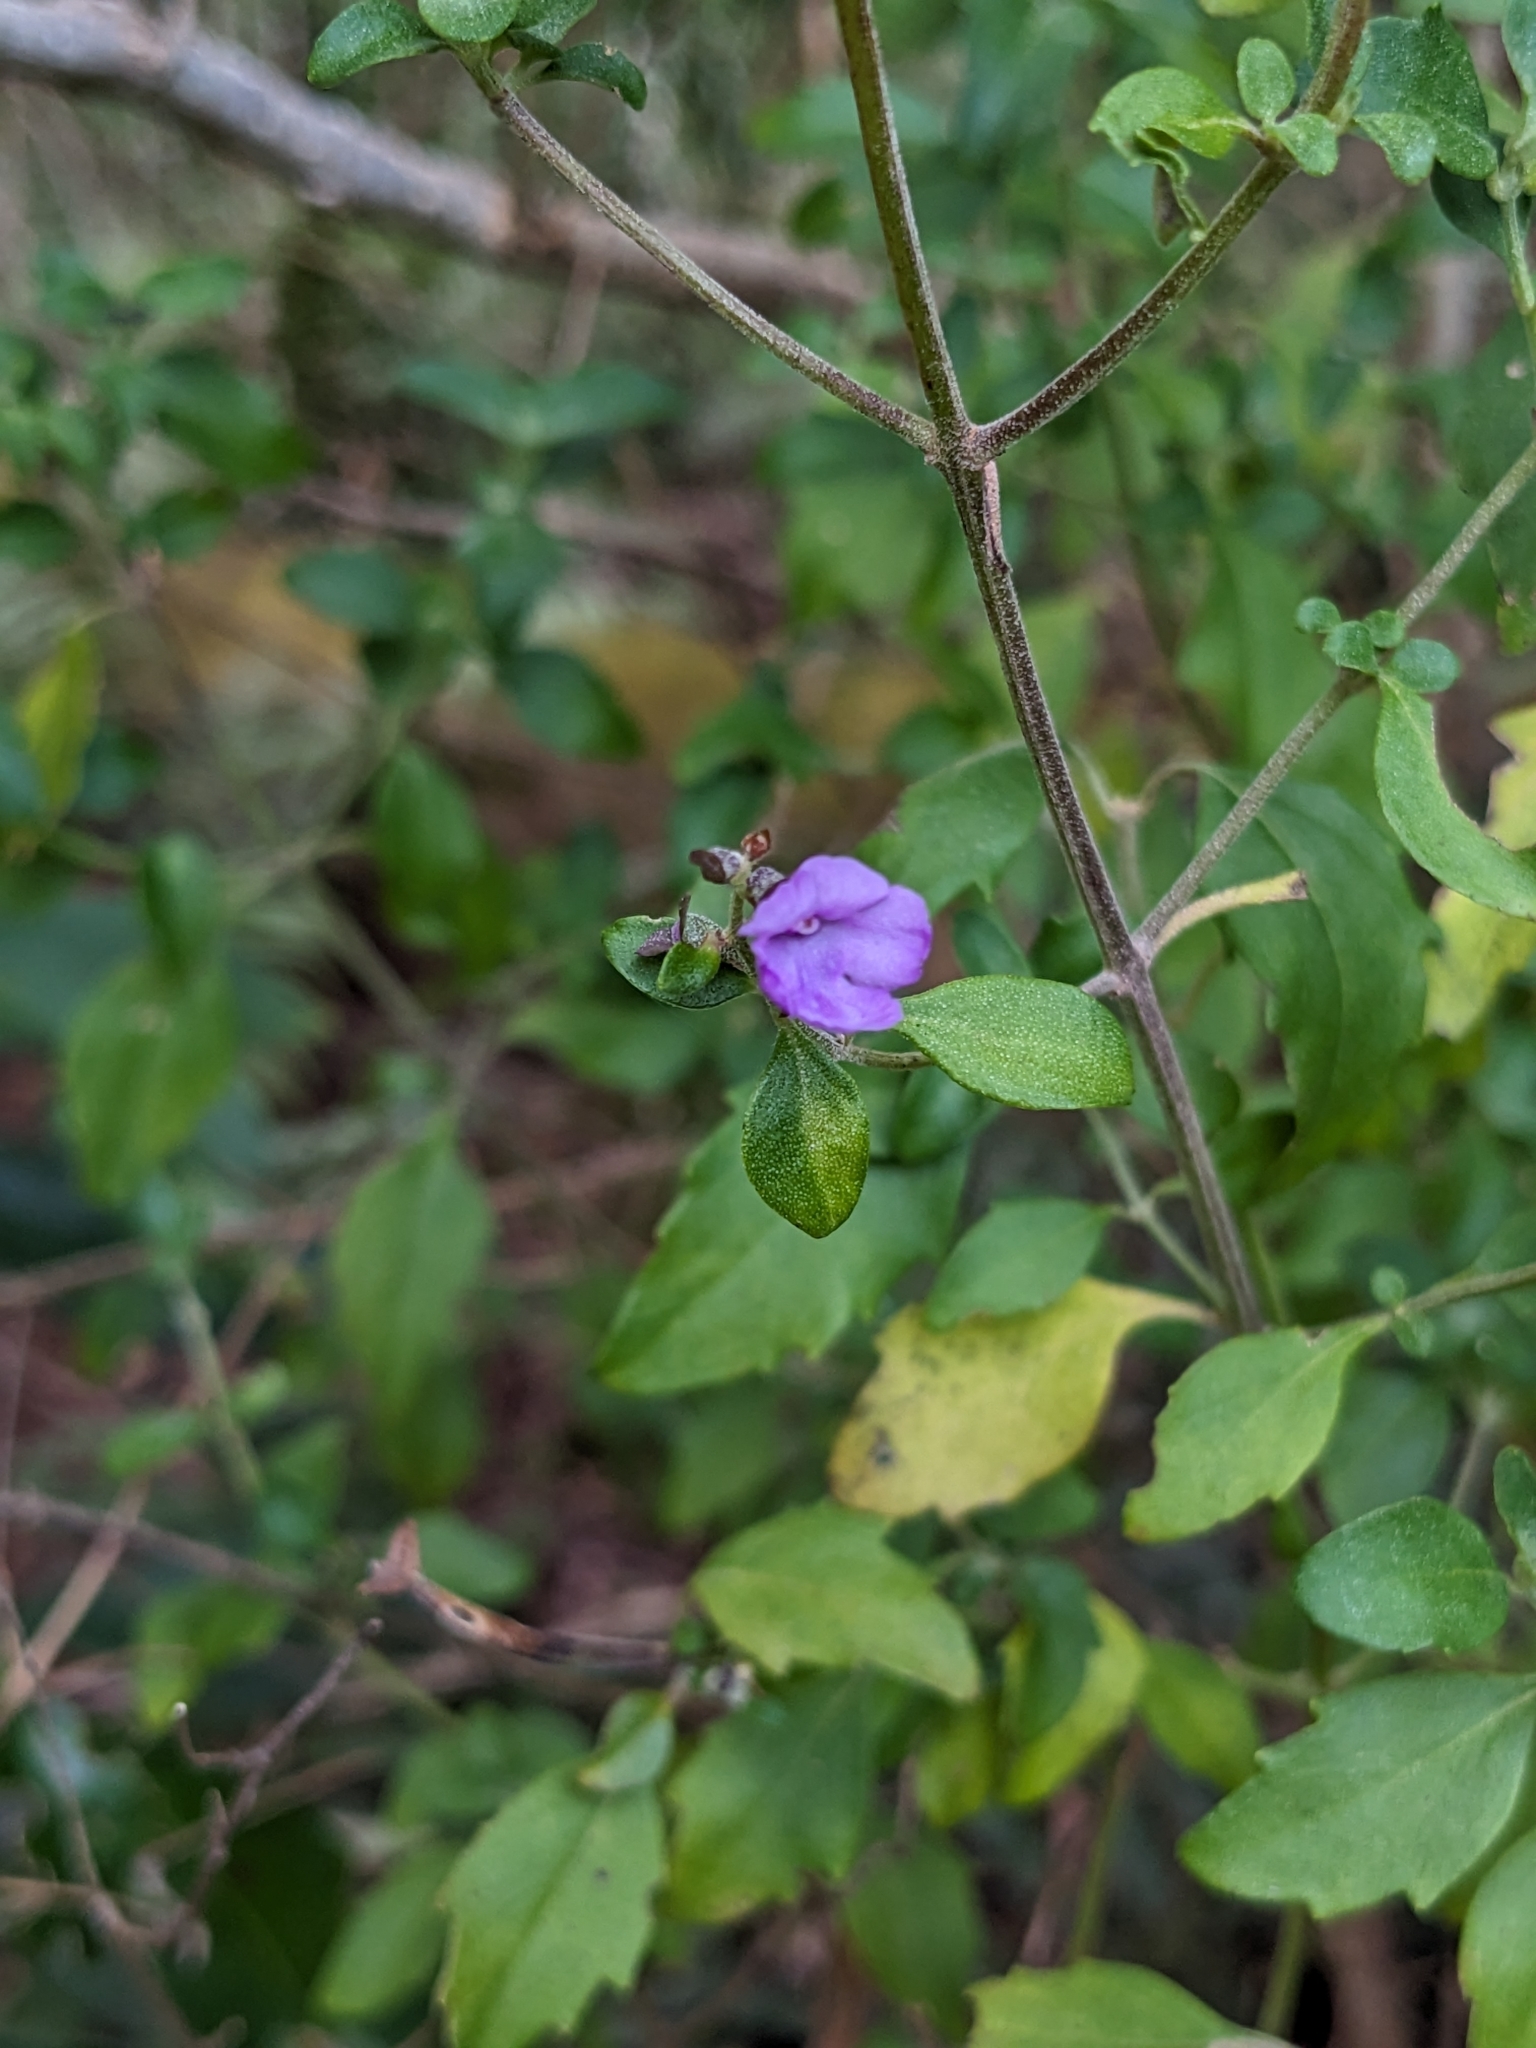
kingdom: Plantae
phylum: Tracheophyta
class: Magnoliopsida
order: Lamiales
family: Lamiaceae
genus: Prostanthera
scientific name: Prostanthera ovalifolia
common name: Purple mintbush
